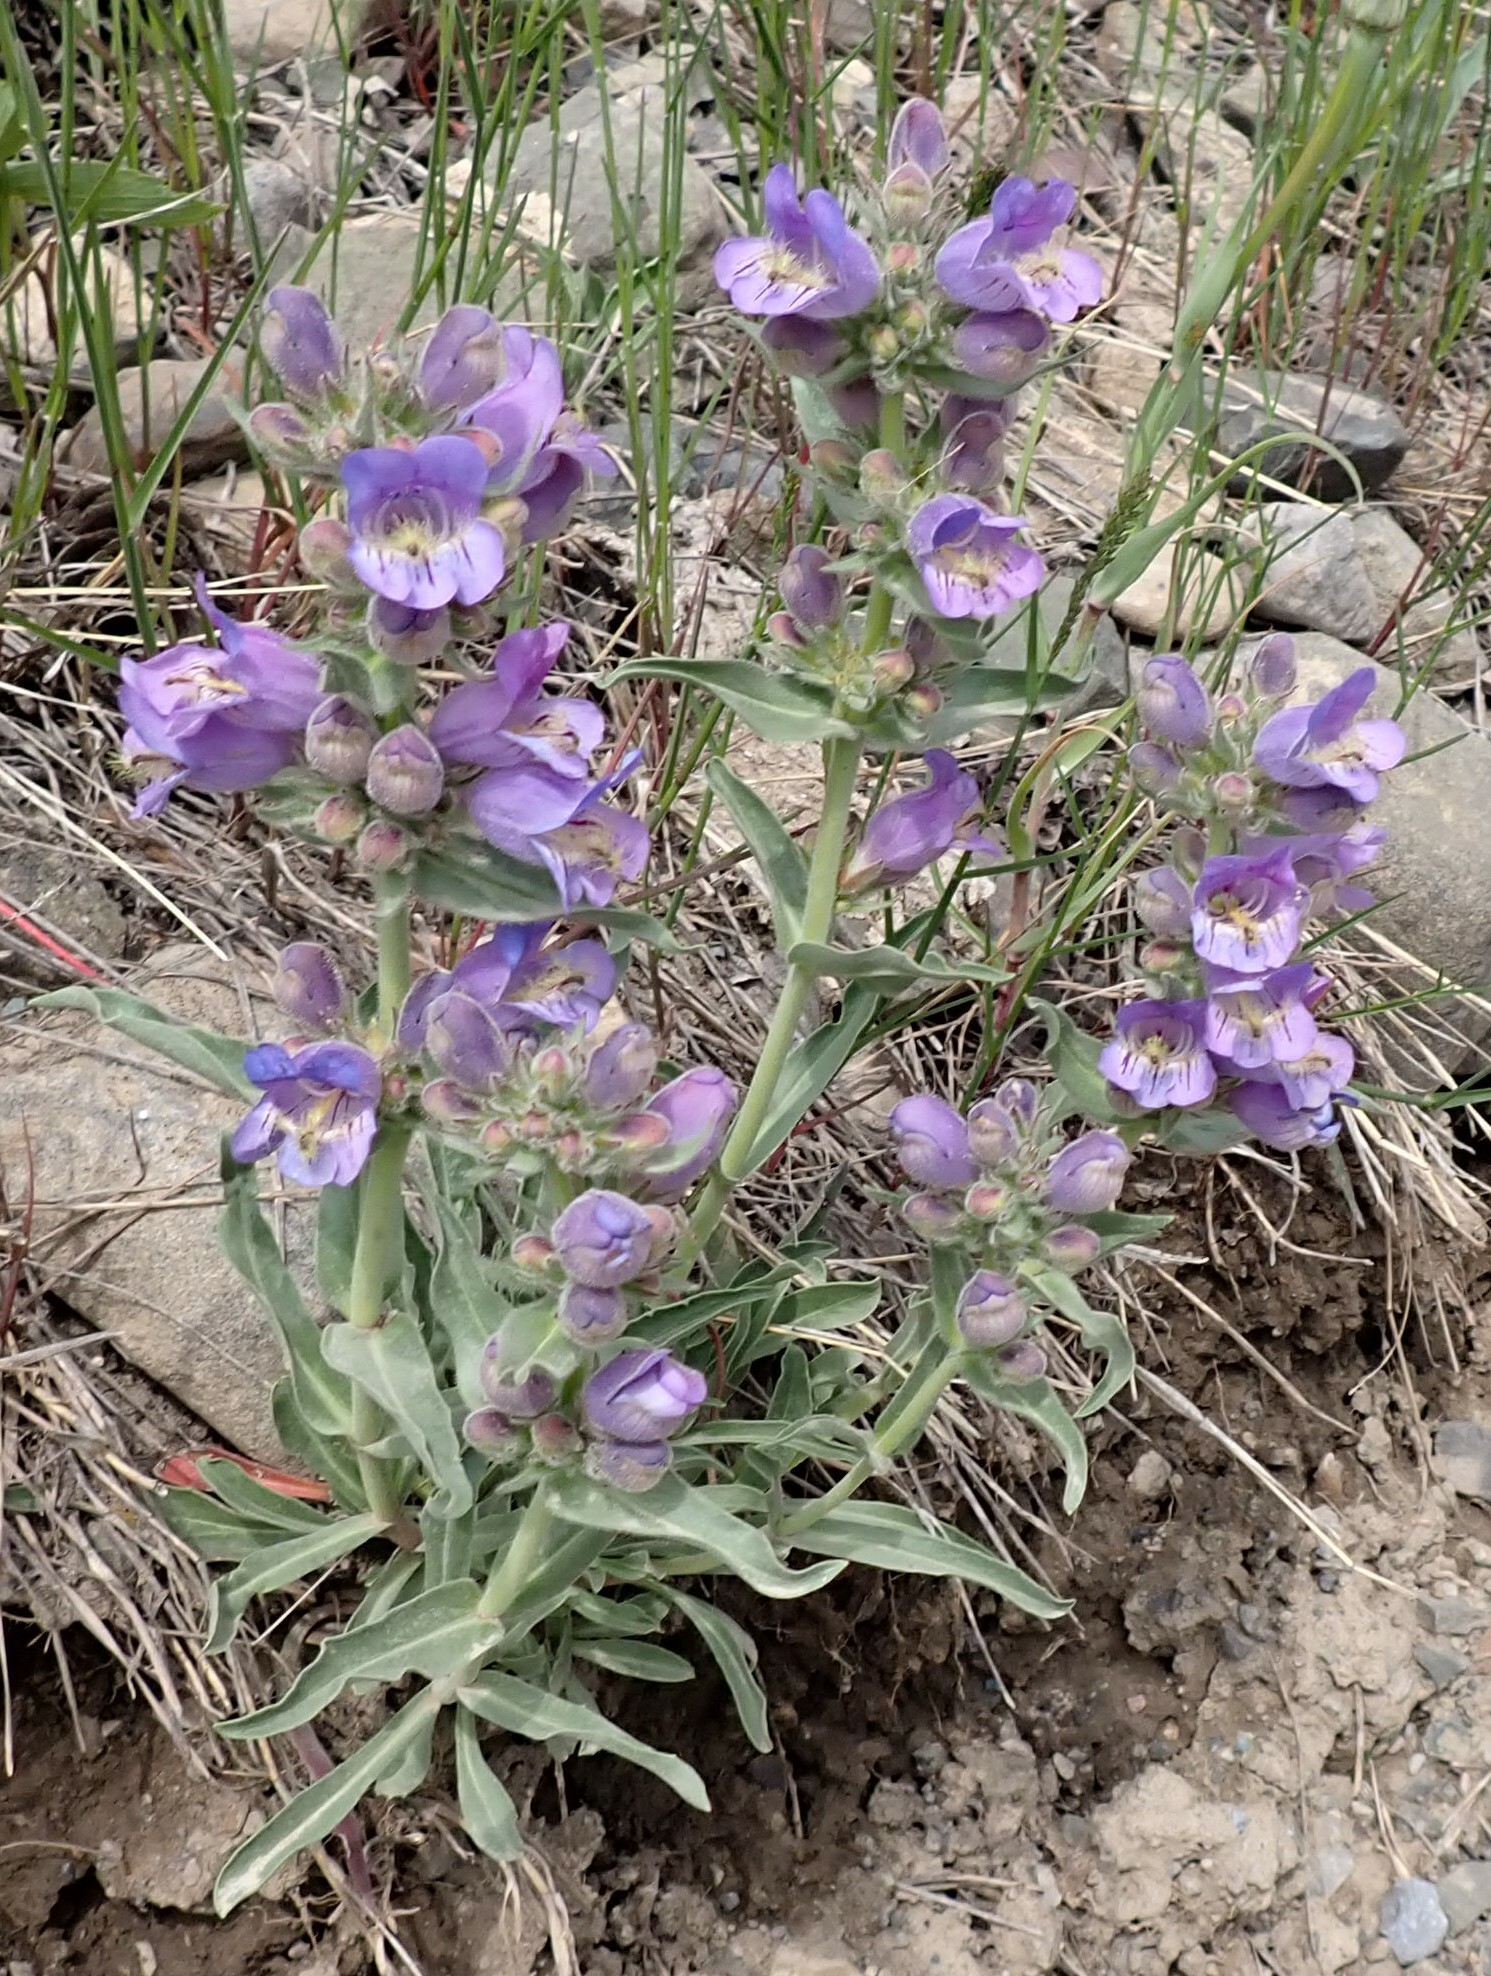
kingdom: Plantae
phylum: Tracheophyta
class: Magnoliopsida
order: Lamiales
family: Plantaginaceae
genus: Penstemon
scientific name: Penstemon eriantherus
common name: Crested beardtongue
